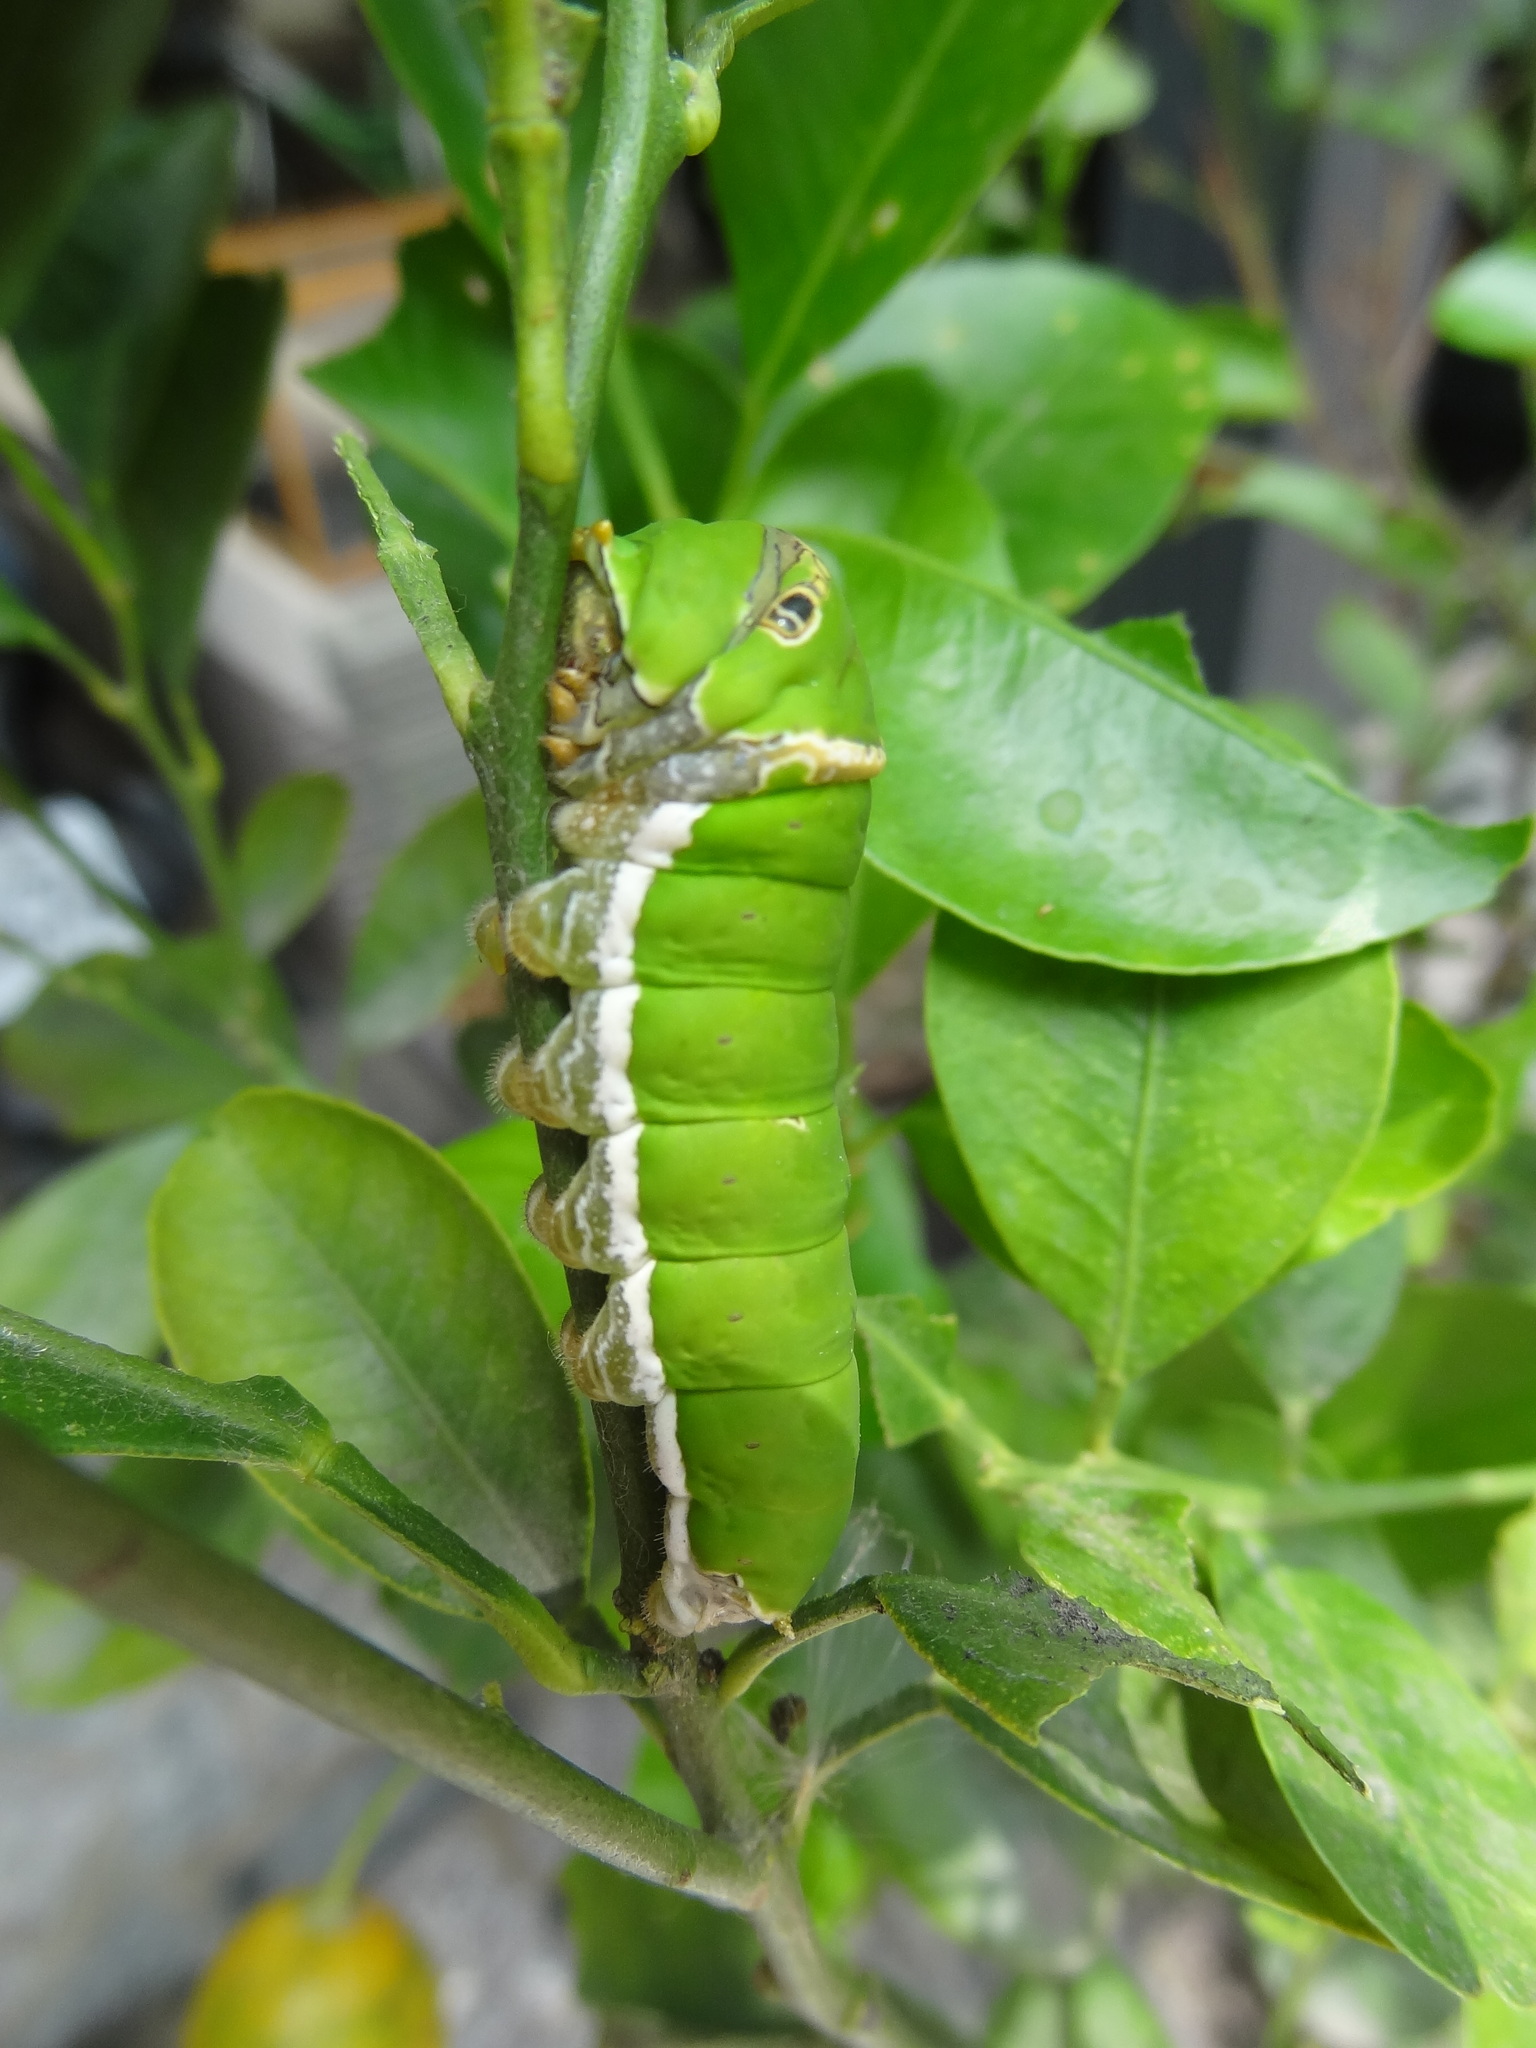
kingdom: Animalia
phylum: Arthropoda
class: Insecta
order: Lepidoptera
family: Papilionidae
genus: Papilio
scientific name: Papilio demoleus
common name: Lime butterfly
